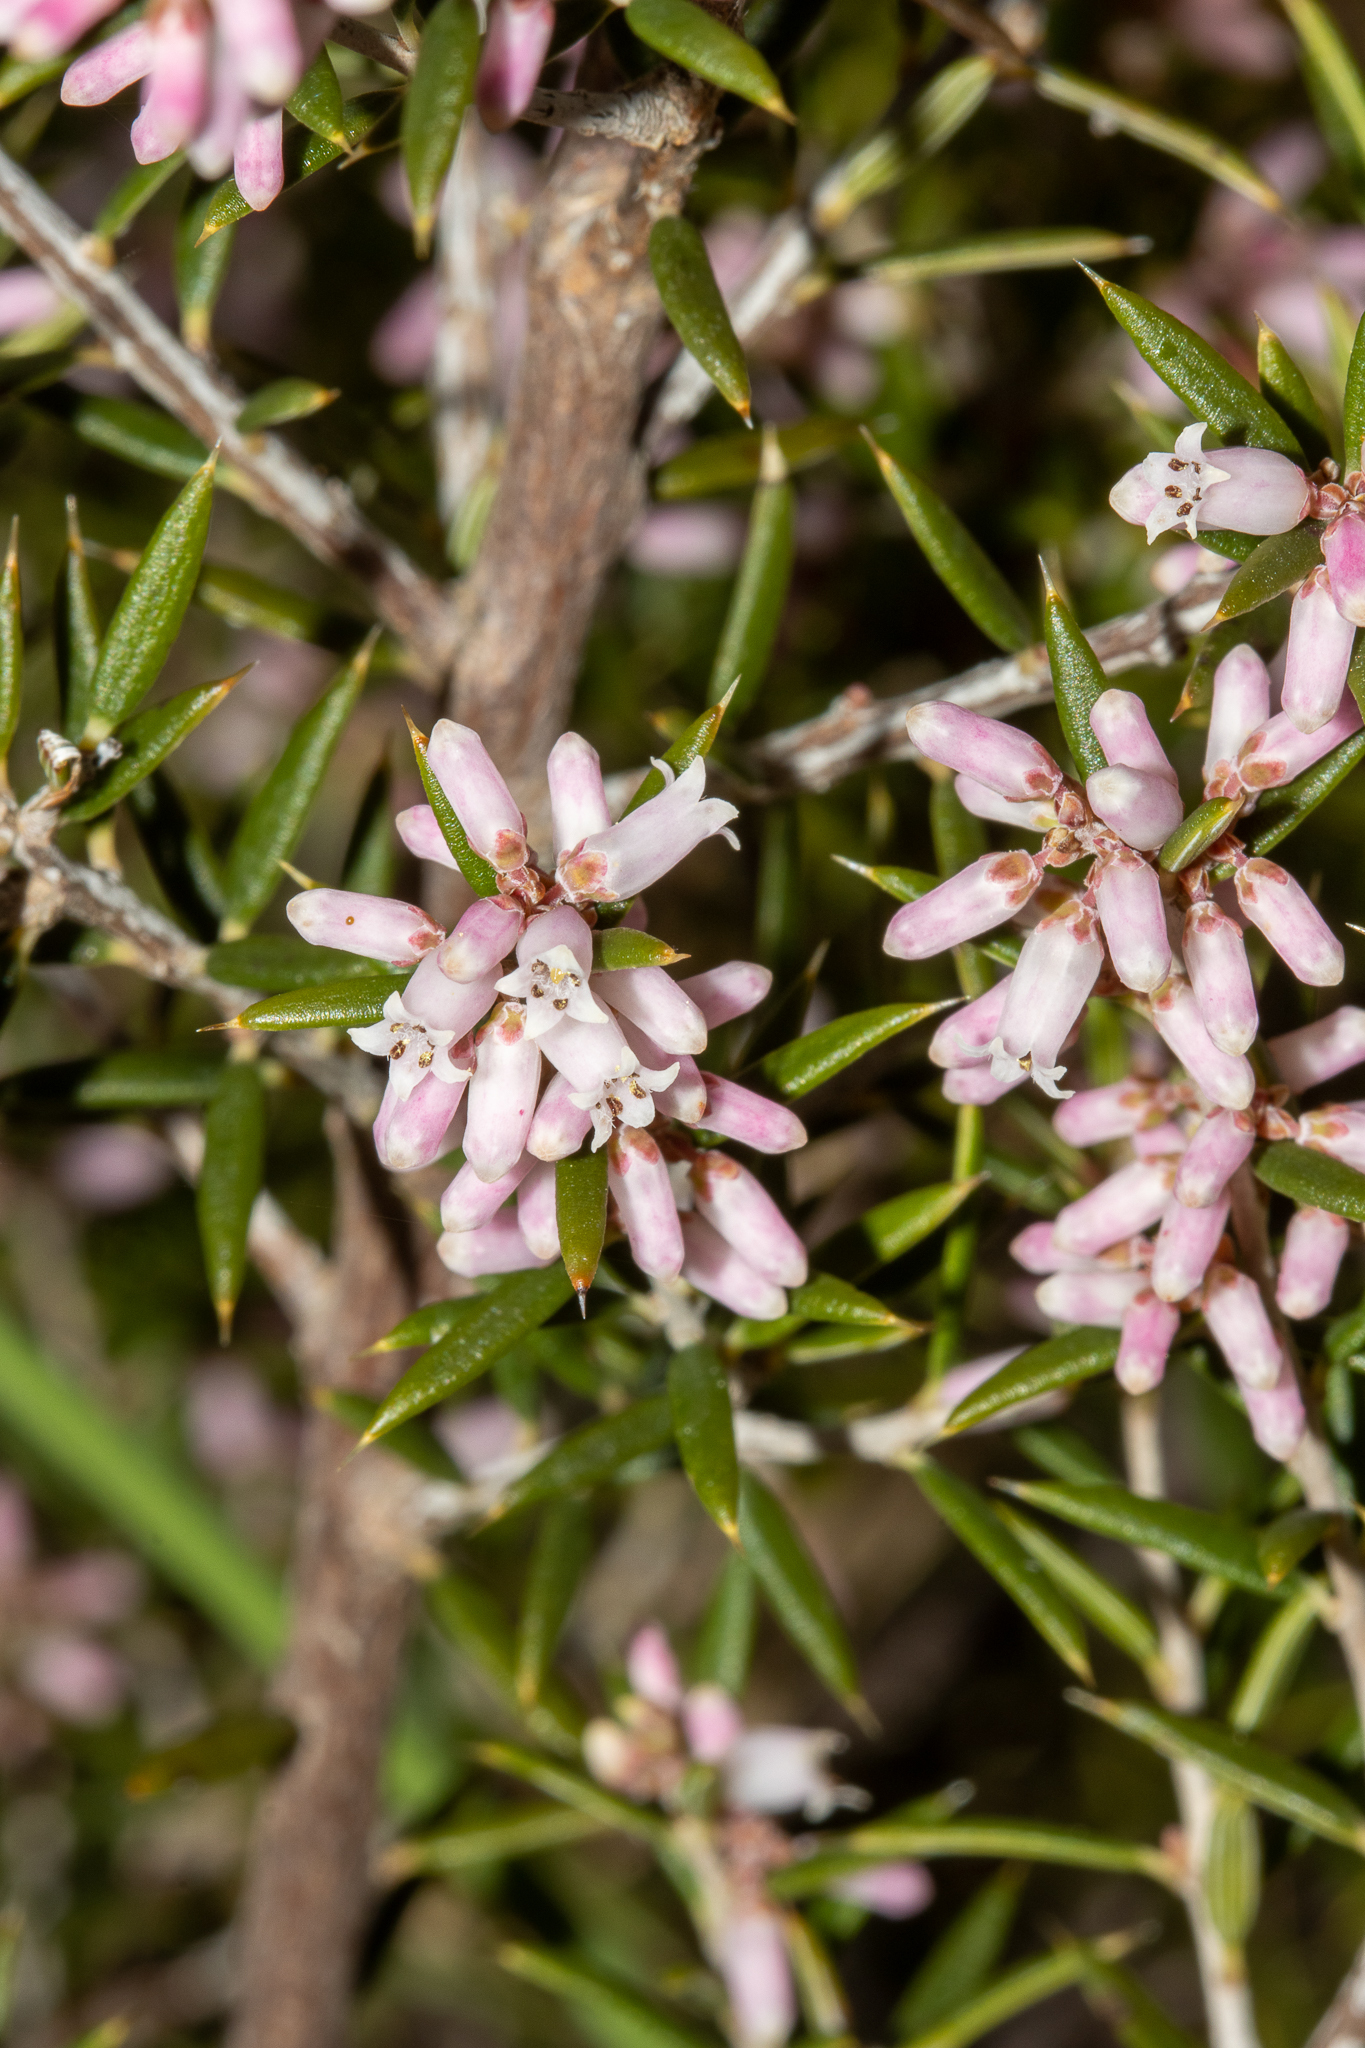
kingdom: Plantae
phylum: Tracheophyta
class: Magnoliopsida
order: Ericales
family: Ericaceae
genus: Lissanthe
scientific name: Lissanthe strigosa
